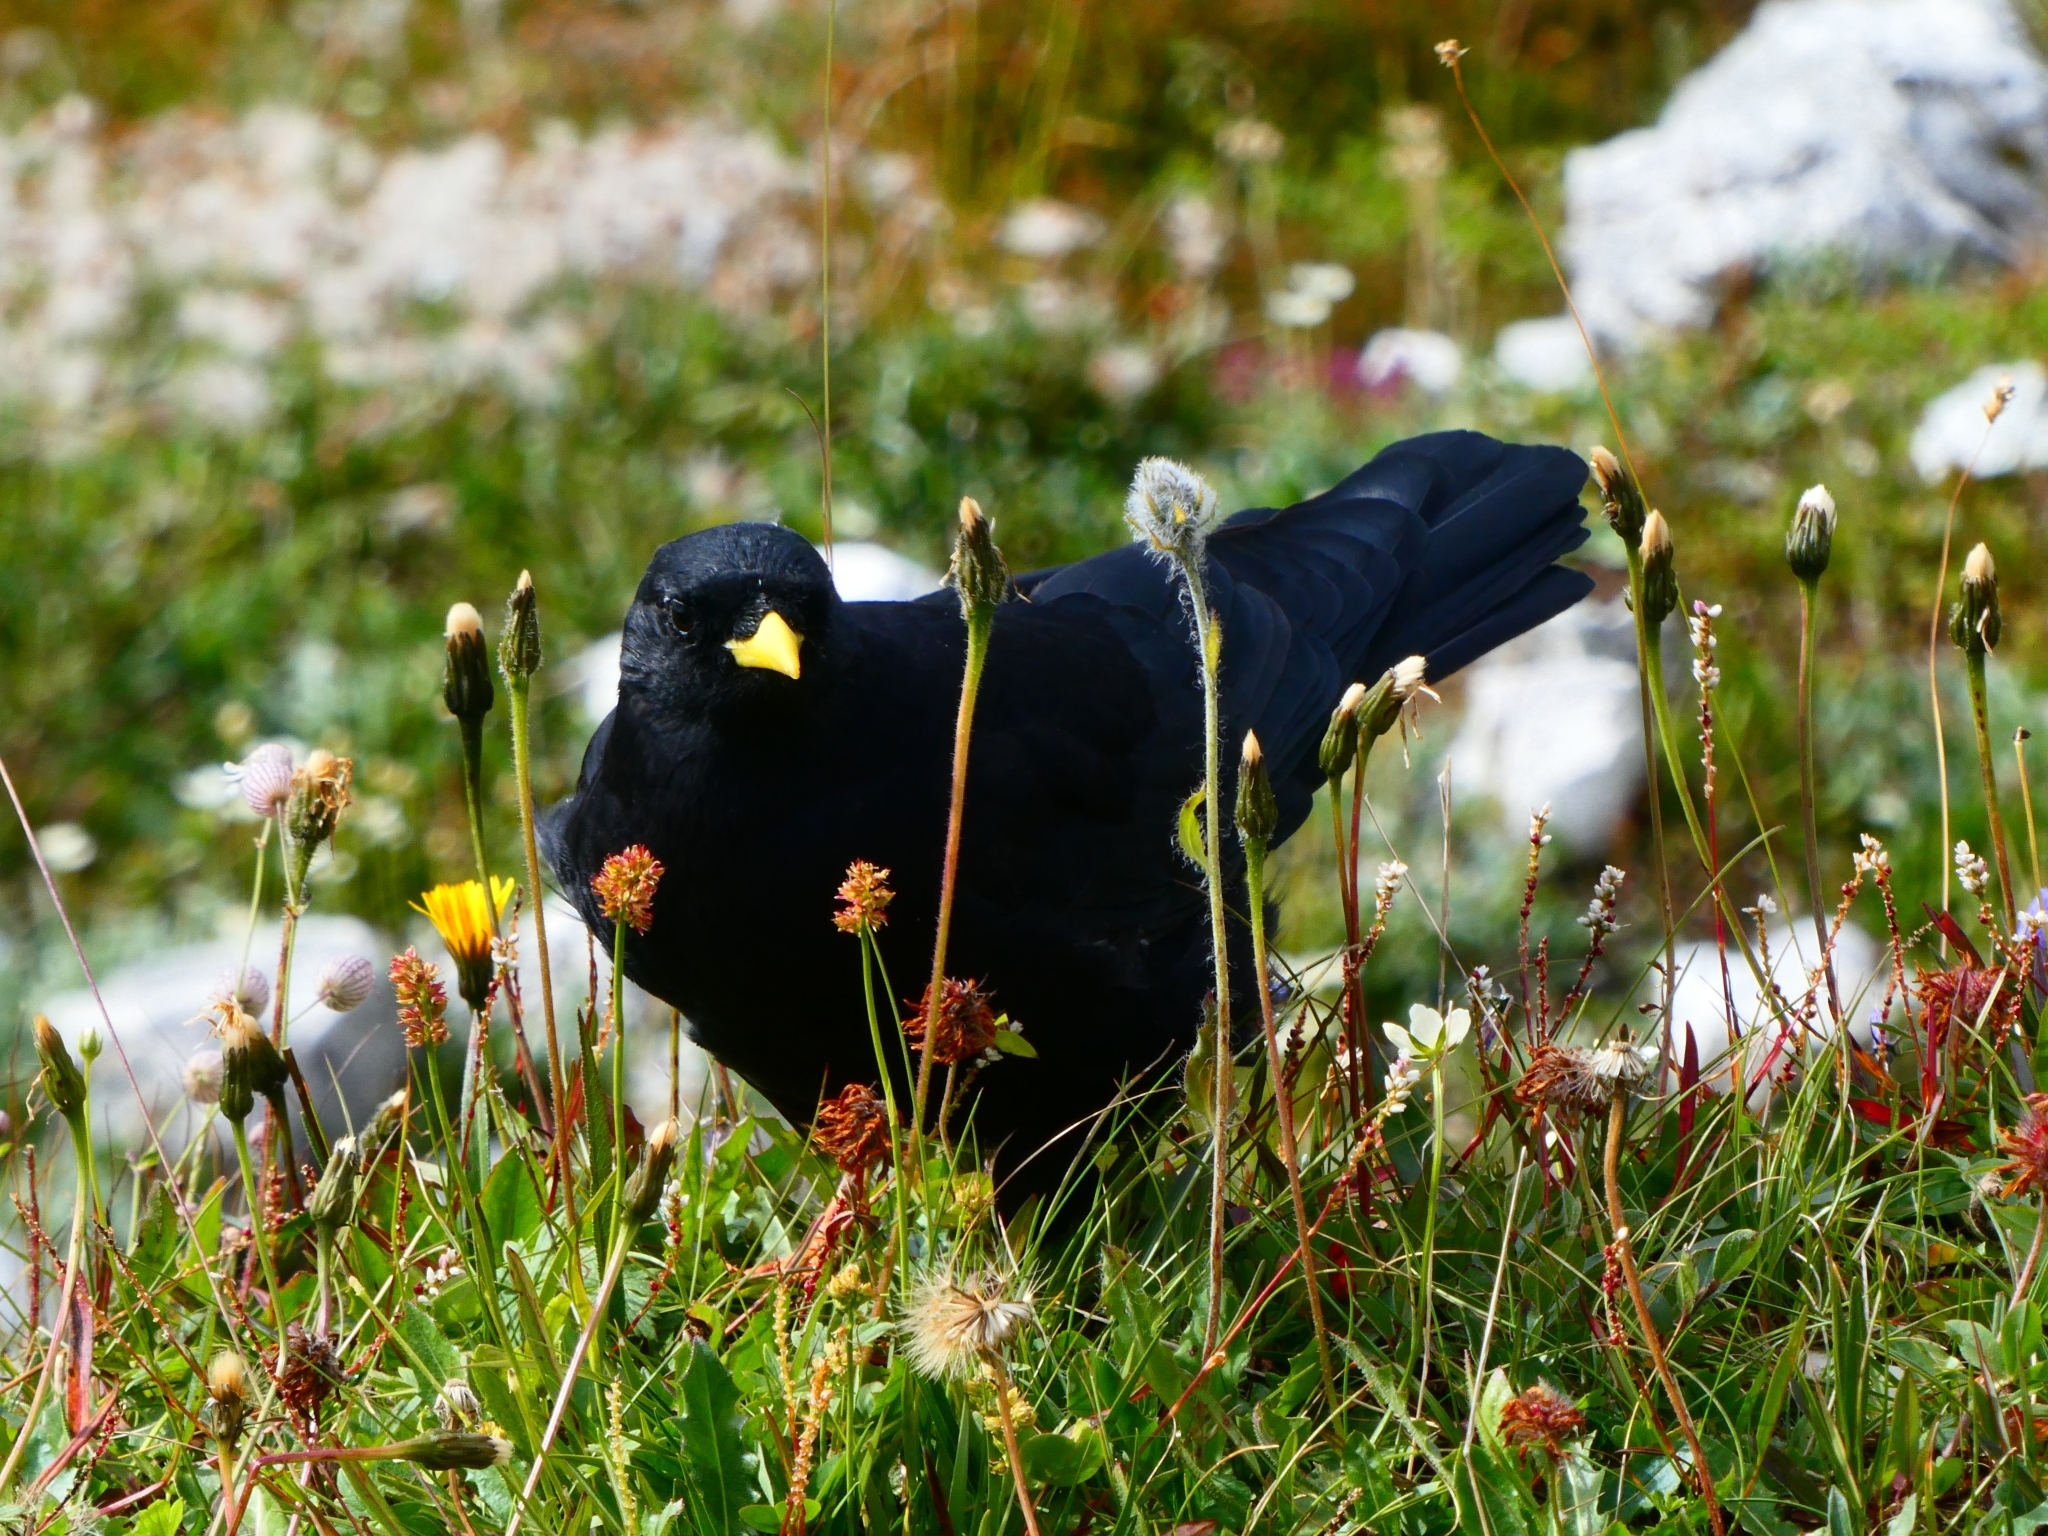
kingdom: Animalia
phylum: Chordata
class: Aves
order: Passeriformes
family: Corvidae
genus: Pyrrhocorax
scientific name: Pyrrhocorax graculus
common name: Alpine chough
